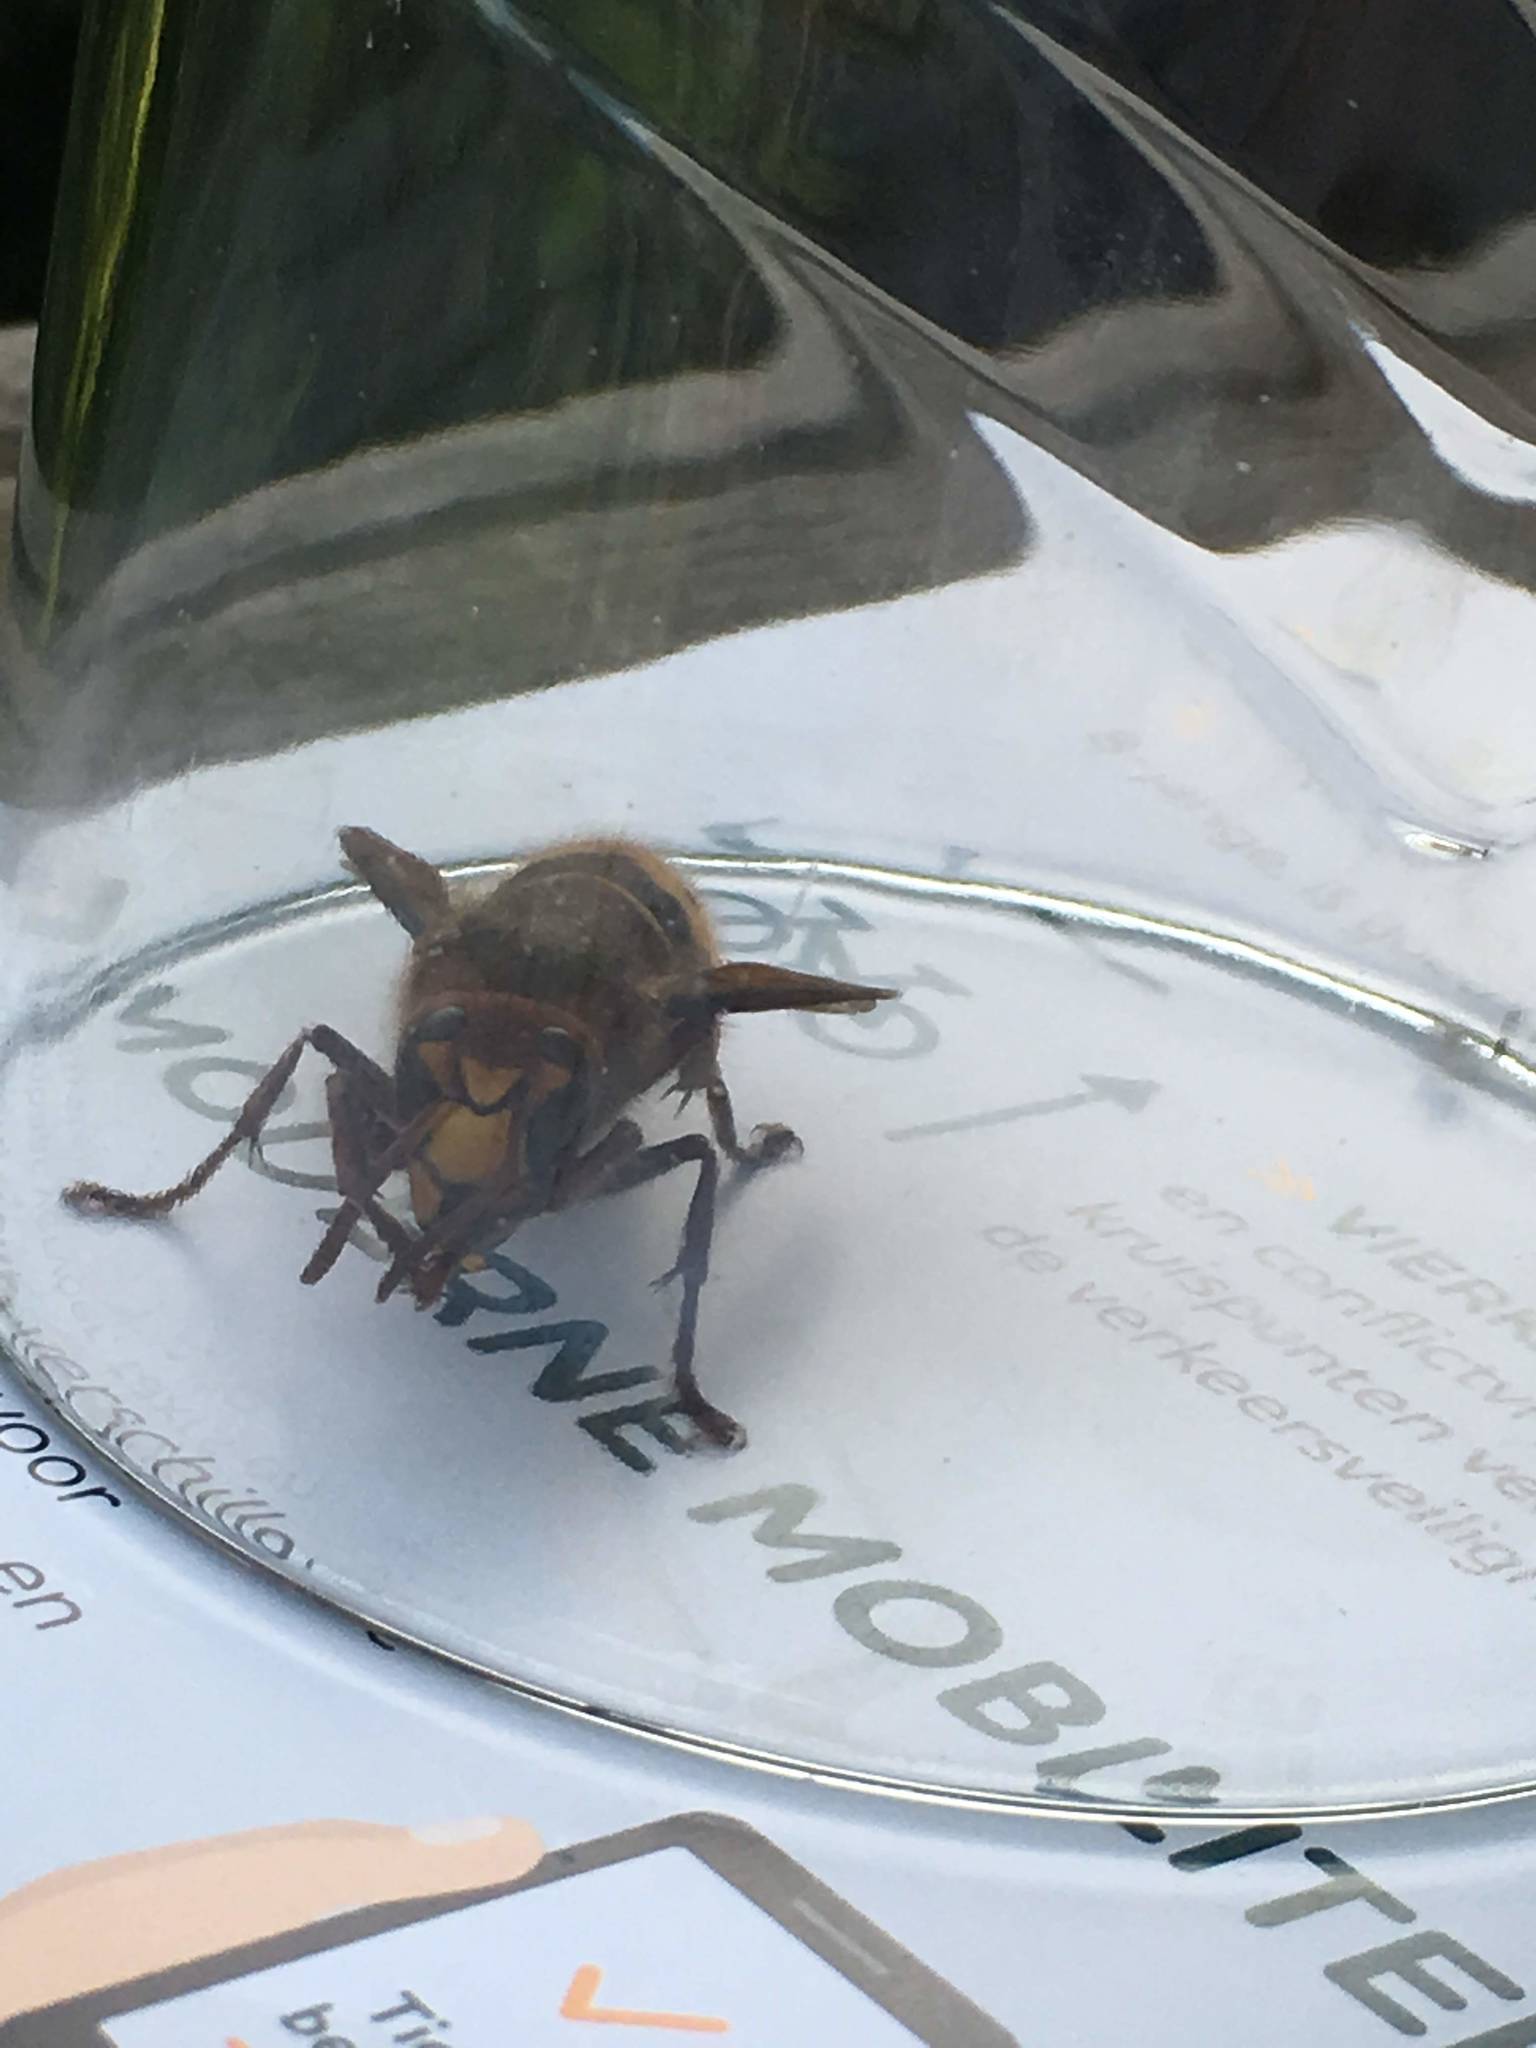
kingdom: Animalia
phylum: Arthropoda
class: Insecta
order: Hymenoptera
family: Vespidae
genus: Vespa
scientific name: Vespa crabro
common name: Hornet
